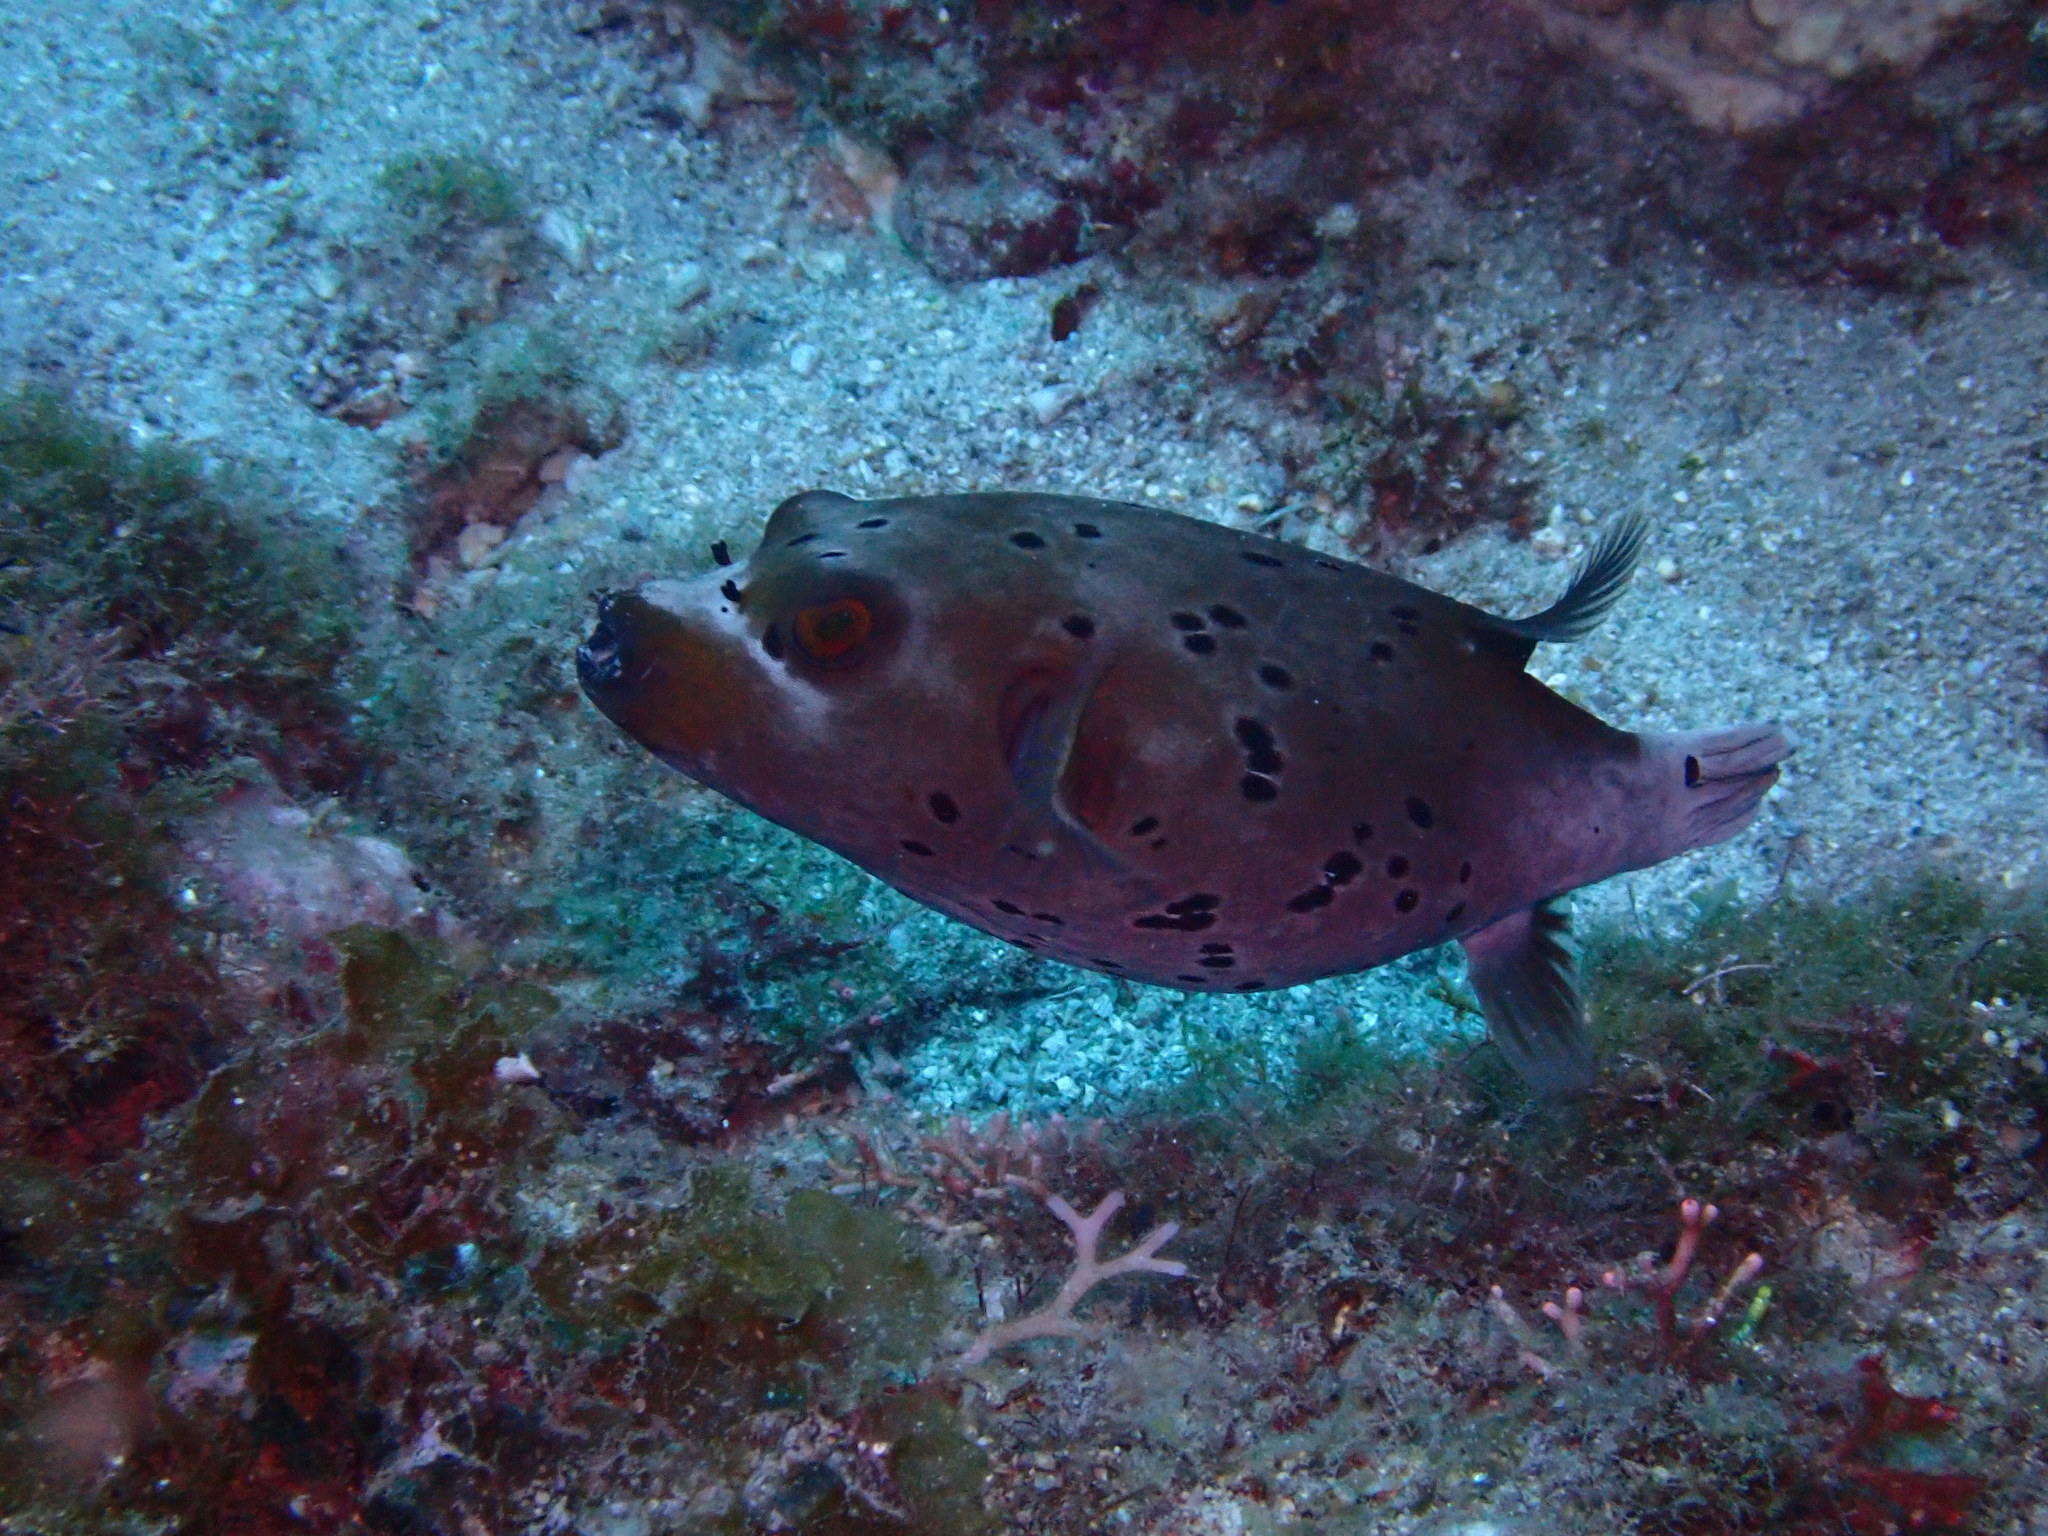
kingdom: Animalia
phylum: Chordata
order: Tetraodontiformes
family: Tetraodontidae
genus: Arothron
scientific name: Arothron nigropunctatus
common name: Black spotted blow fish
